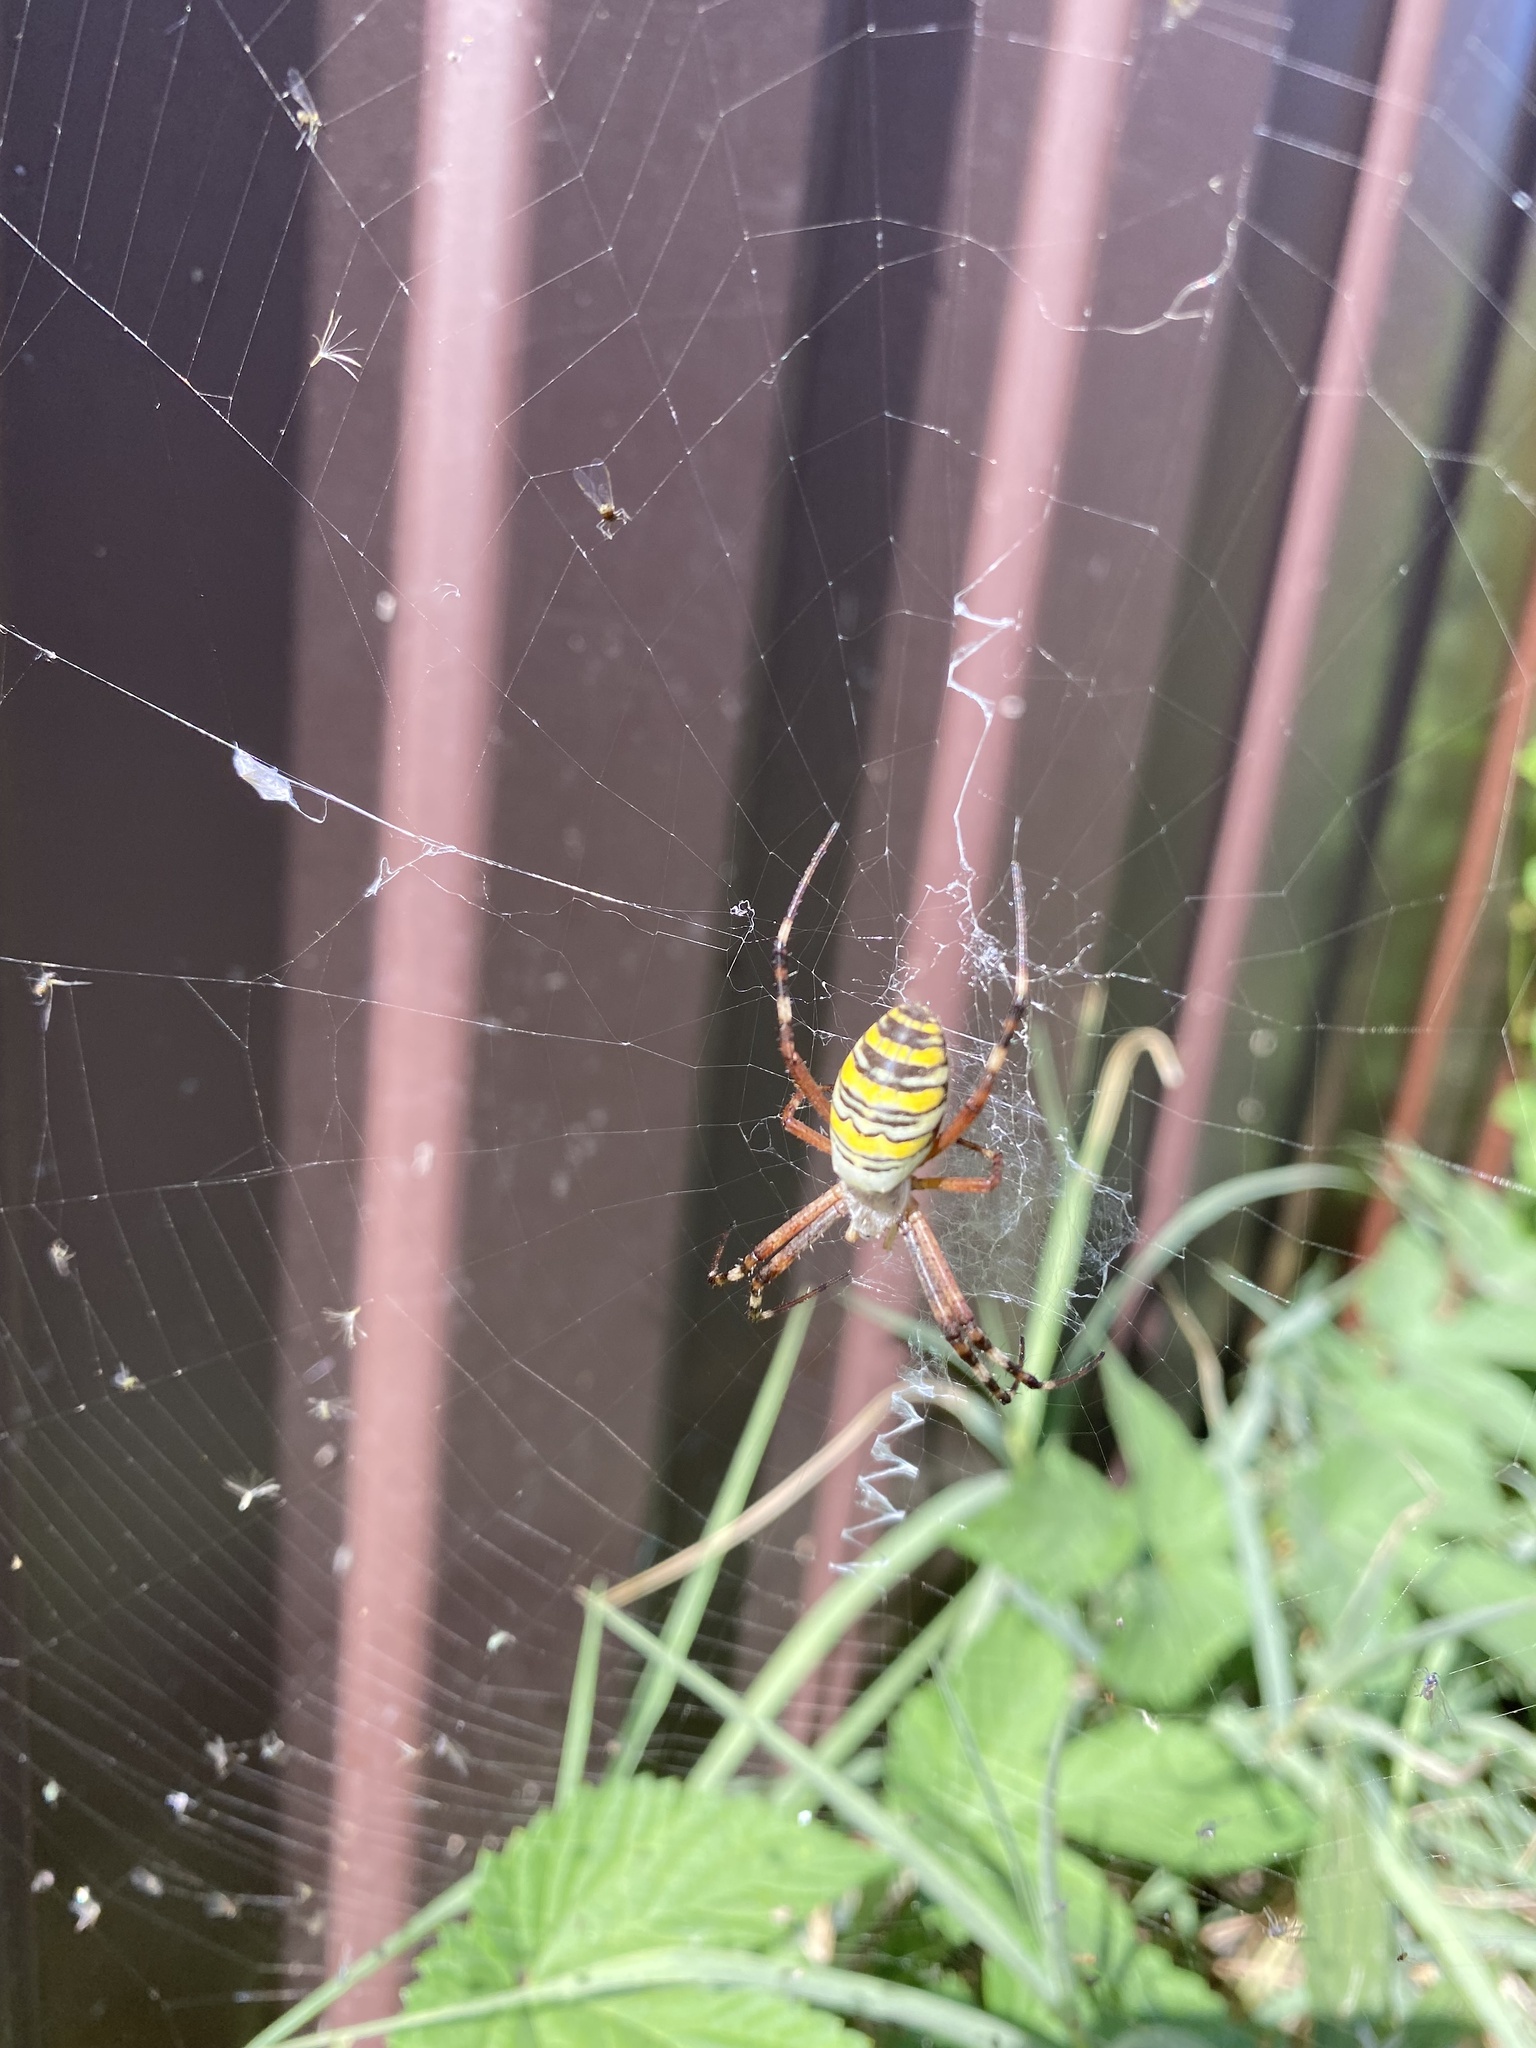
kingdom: Animalia
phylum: Arthropoda
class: Arachnida
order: Araneae
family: Araneidae
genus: Argiope
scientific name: Argiope bruennichi
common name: Wasp spider
